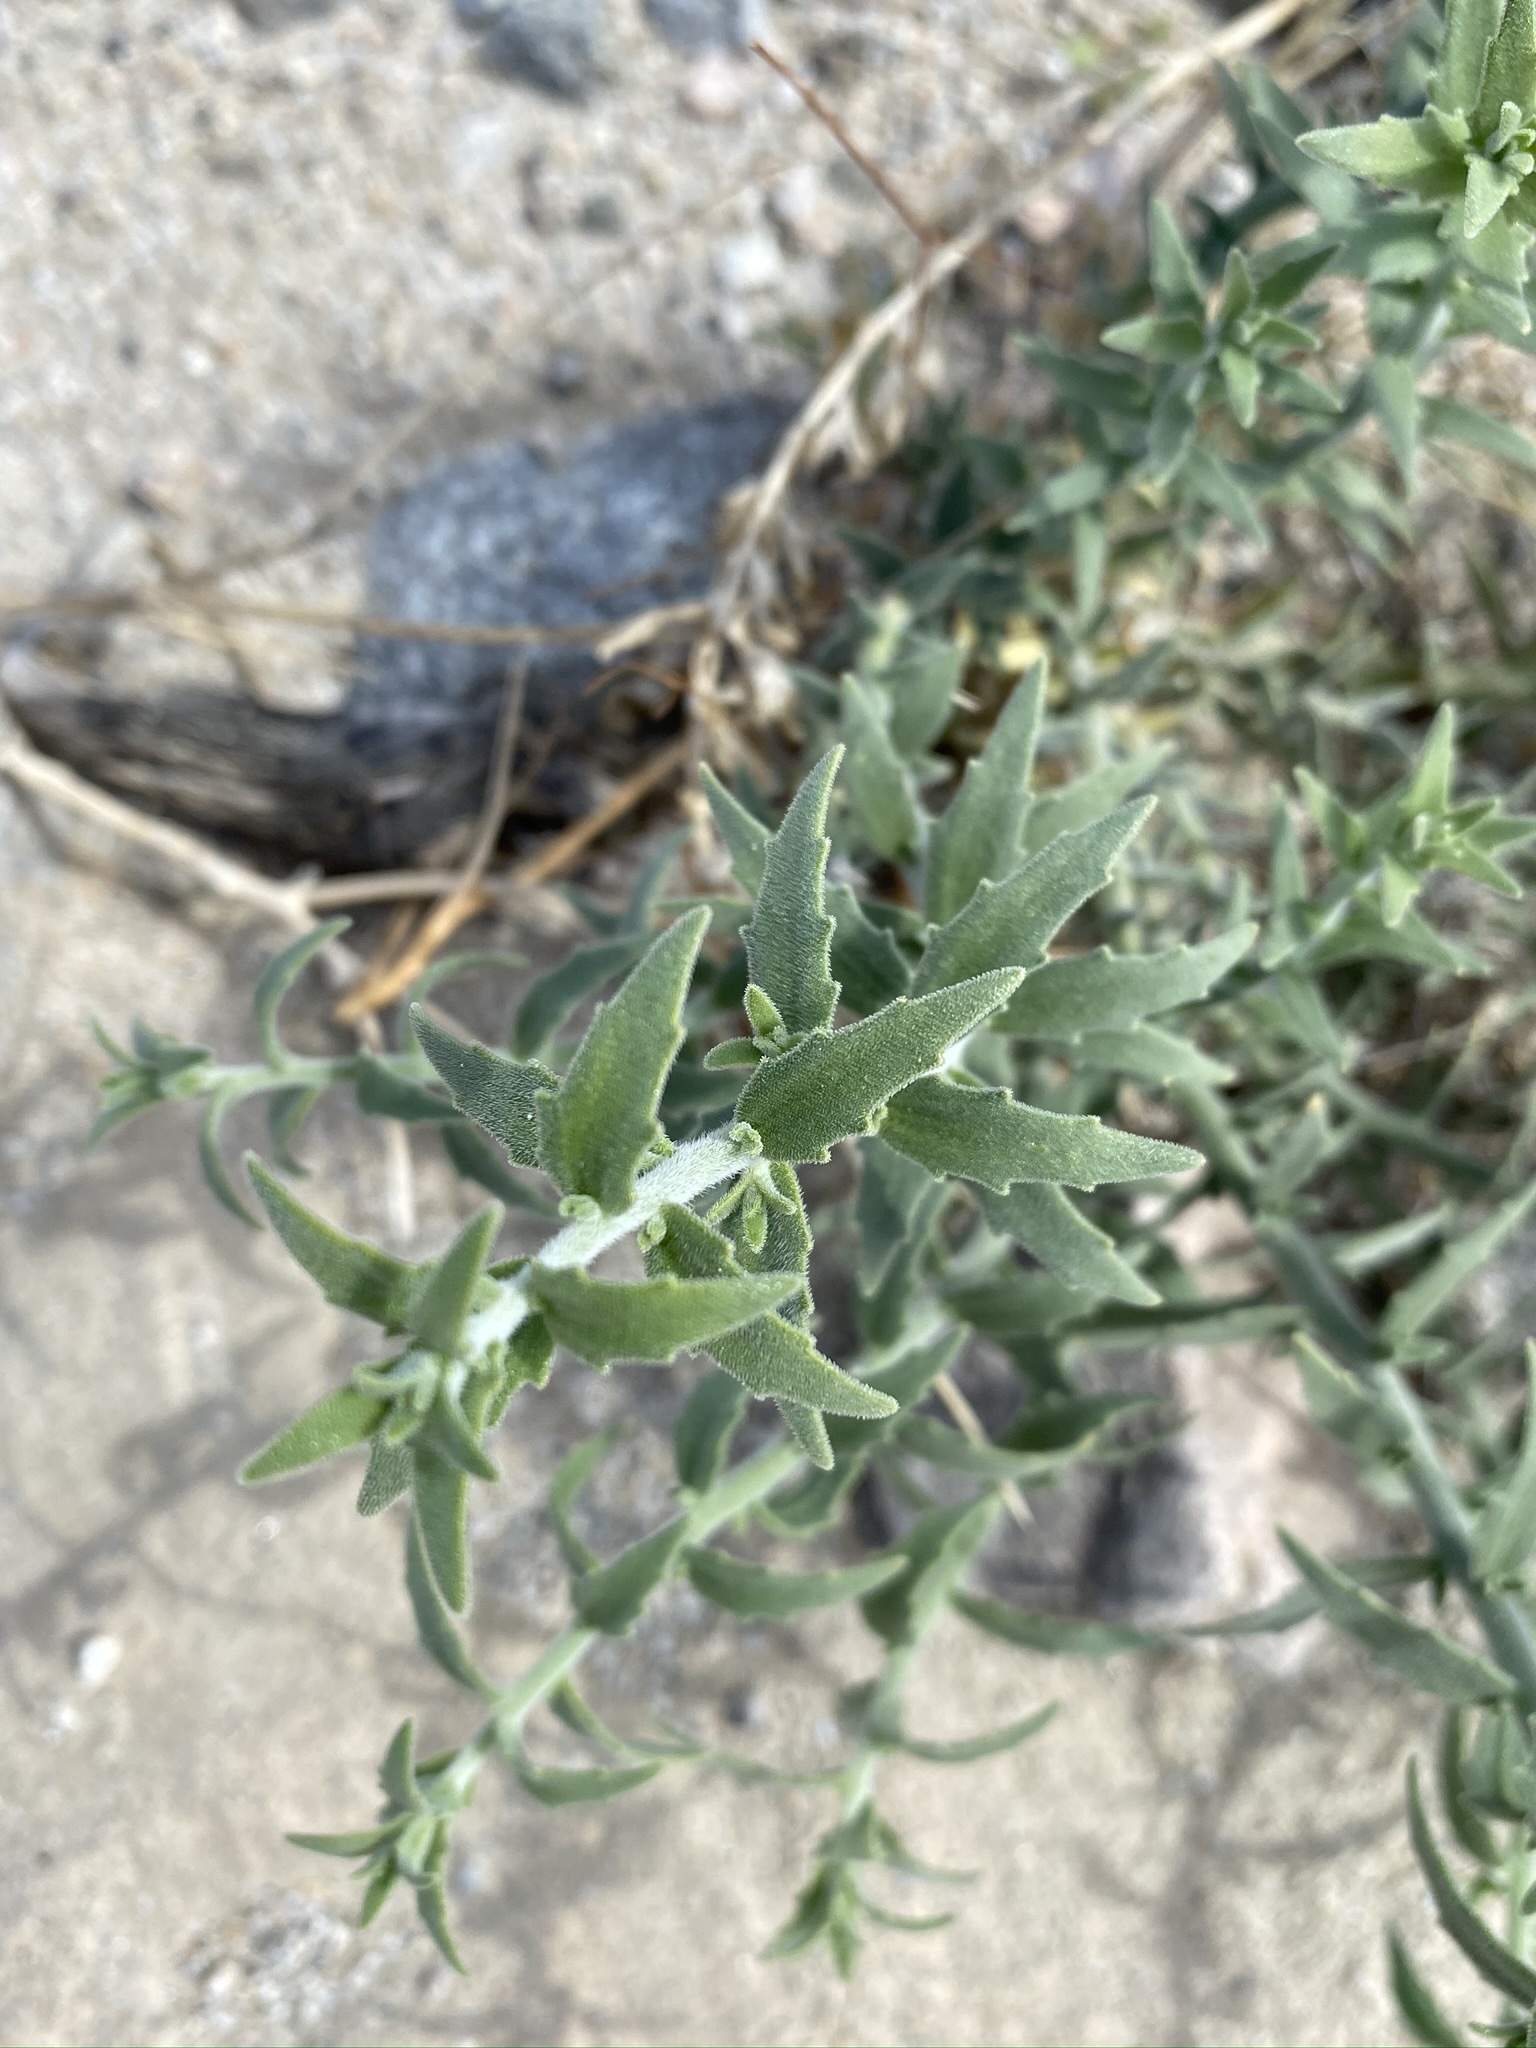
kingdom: Plantae
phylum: Tracheophyta
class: Magnoliopsida
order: Cornales
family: Loasaceae
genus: Petalonyx
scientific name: Petalonyx thurberi
